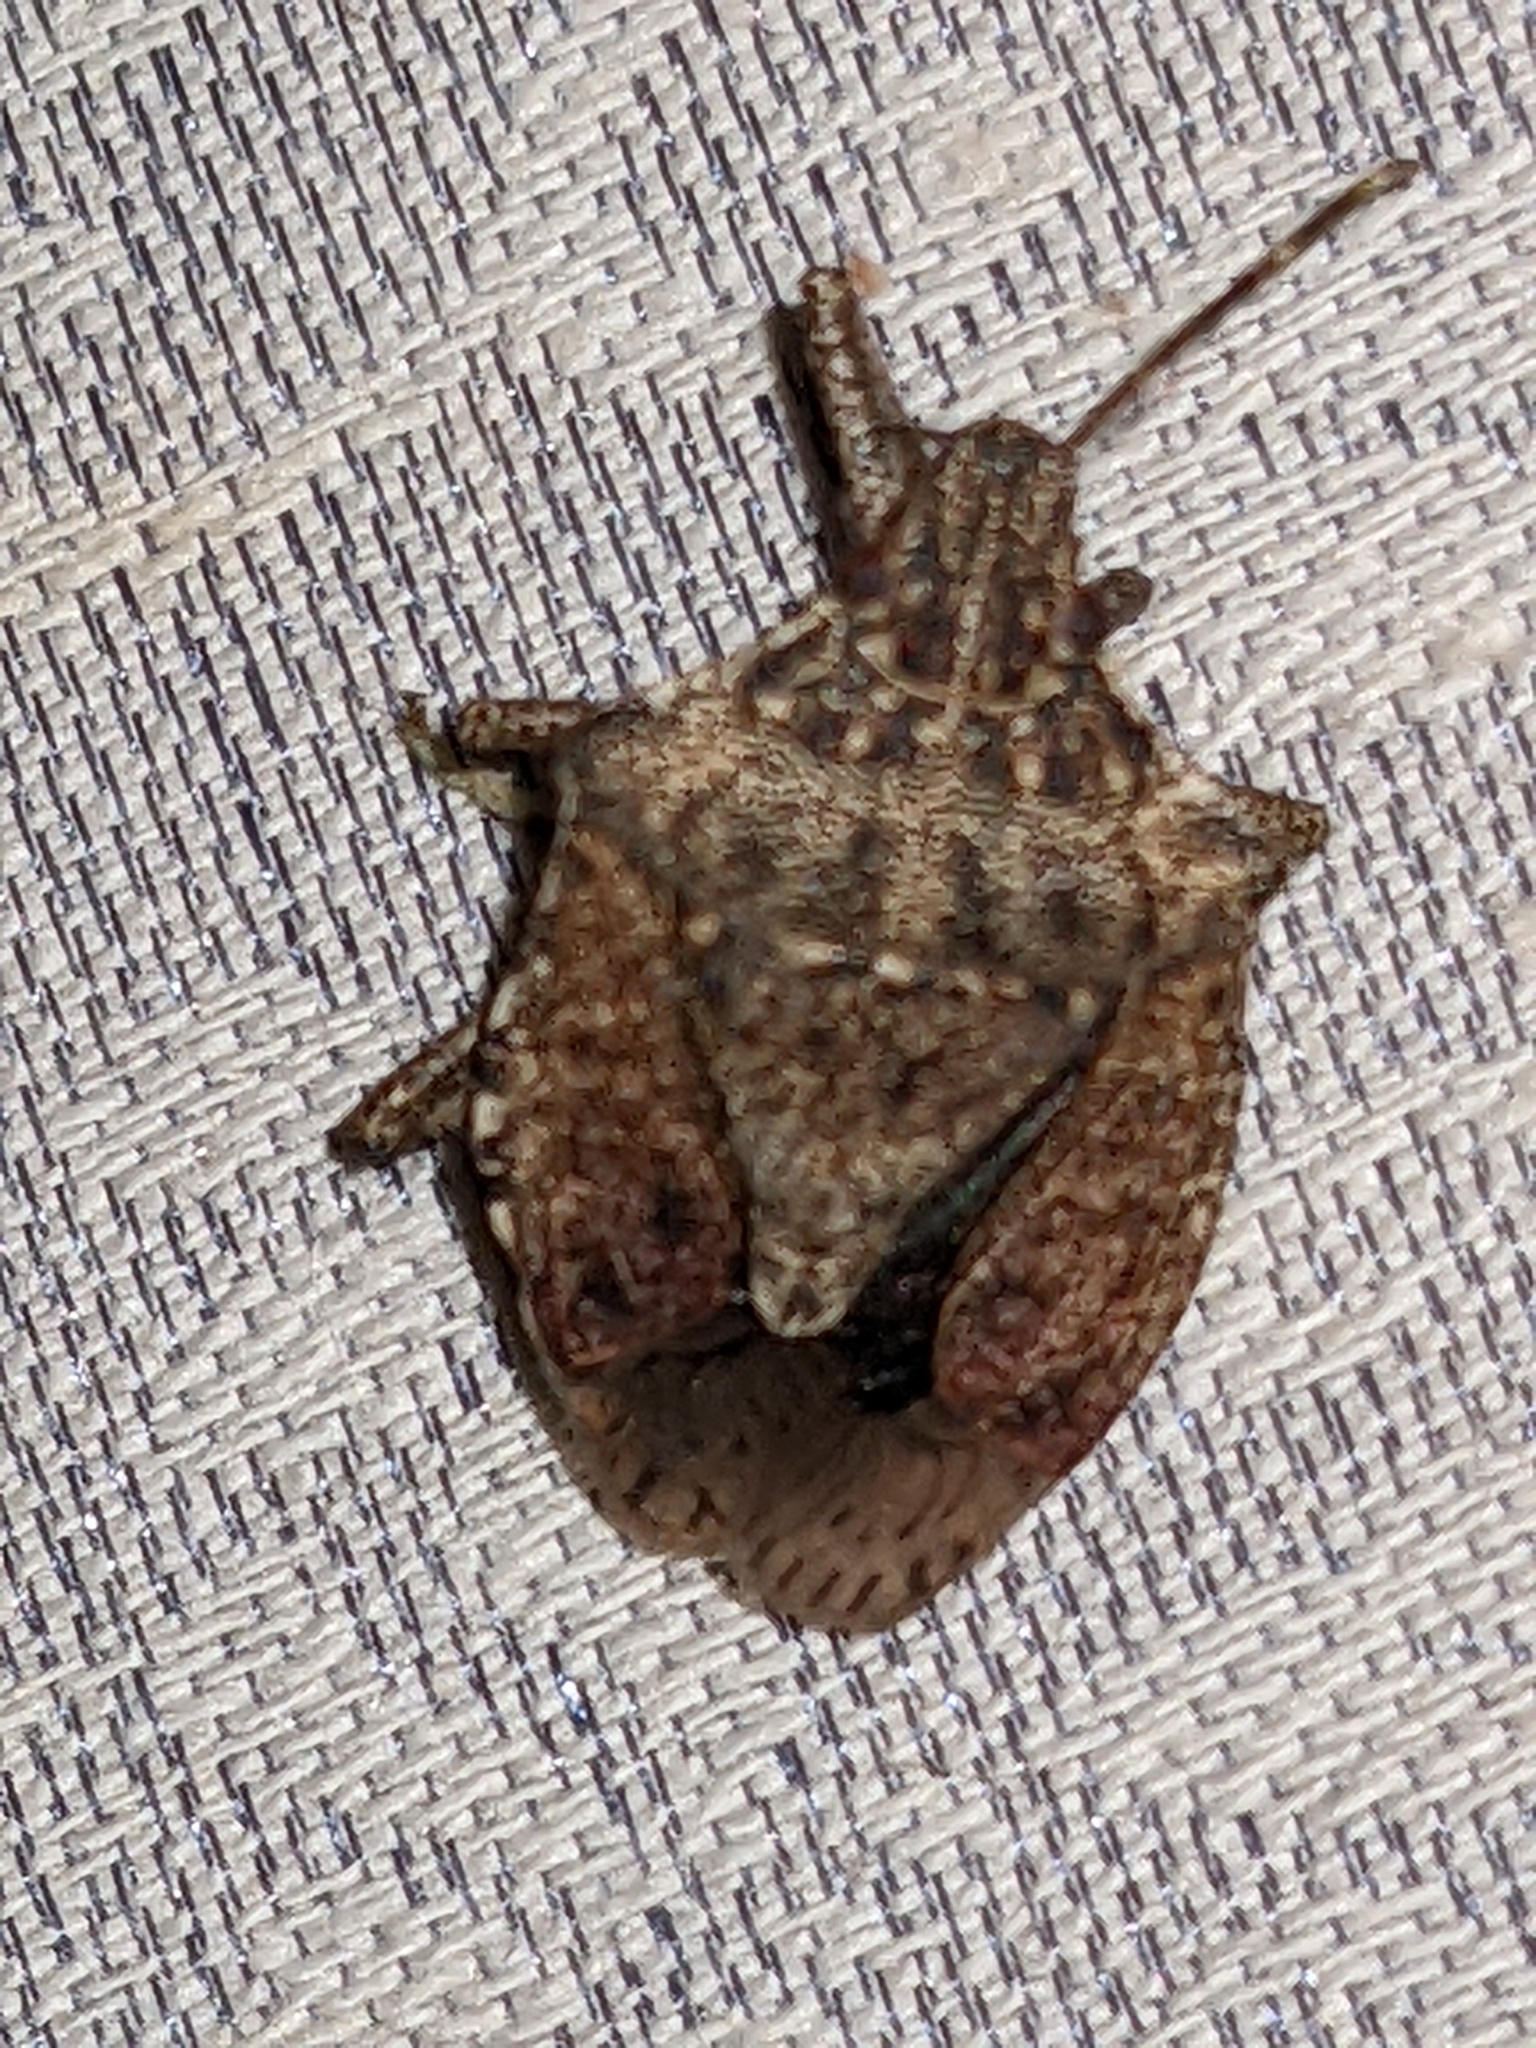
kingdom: Animalia
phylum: Arthropoda
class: Insecta
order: Hemiptera
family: Pentatomidae
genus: Halyomorpha
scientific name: Halyomorpha halys
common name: Brown marmorated stink bug
